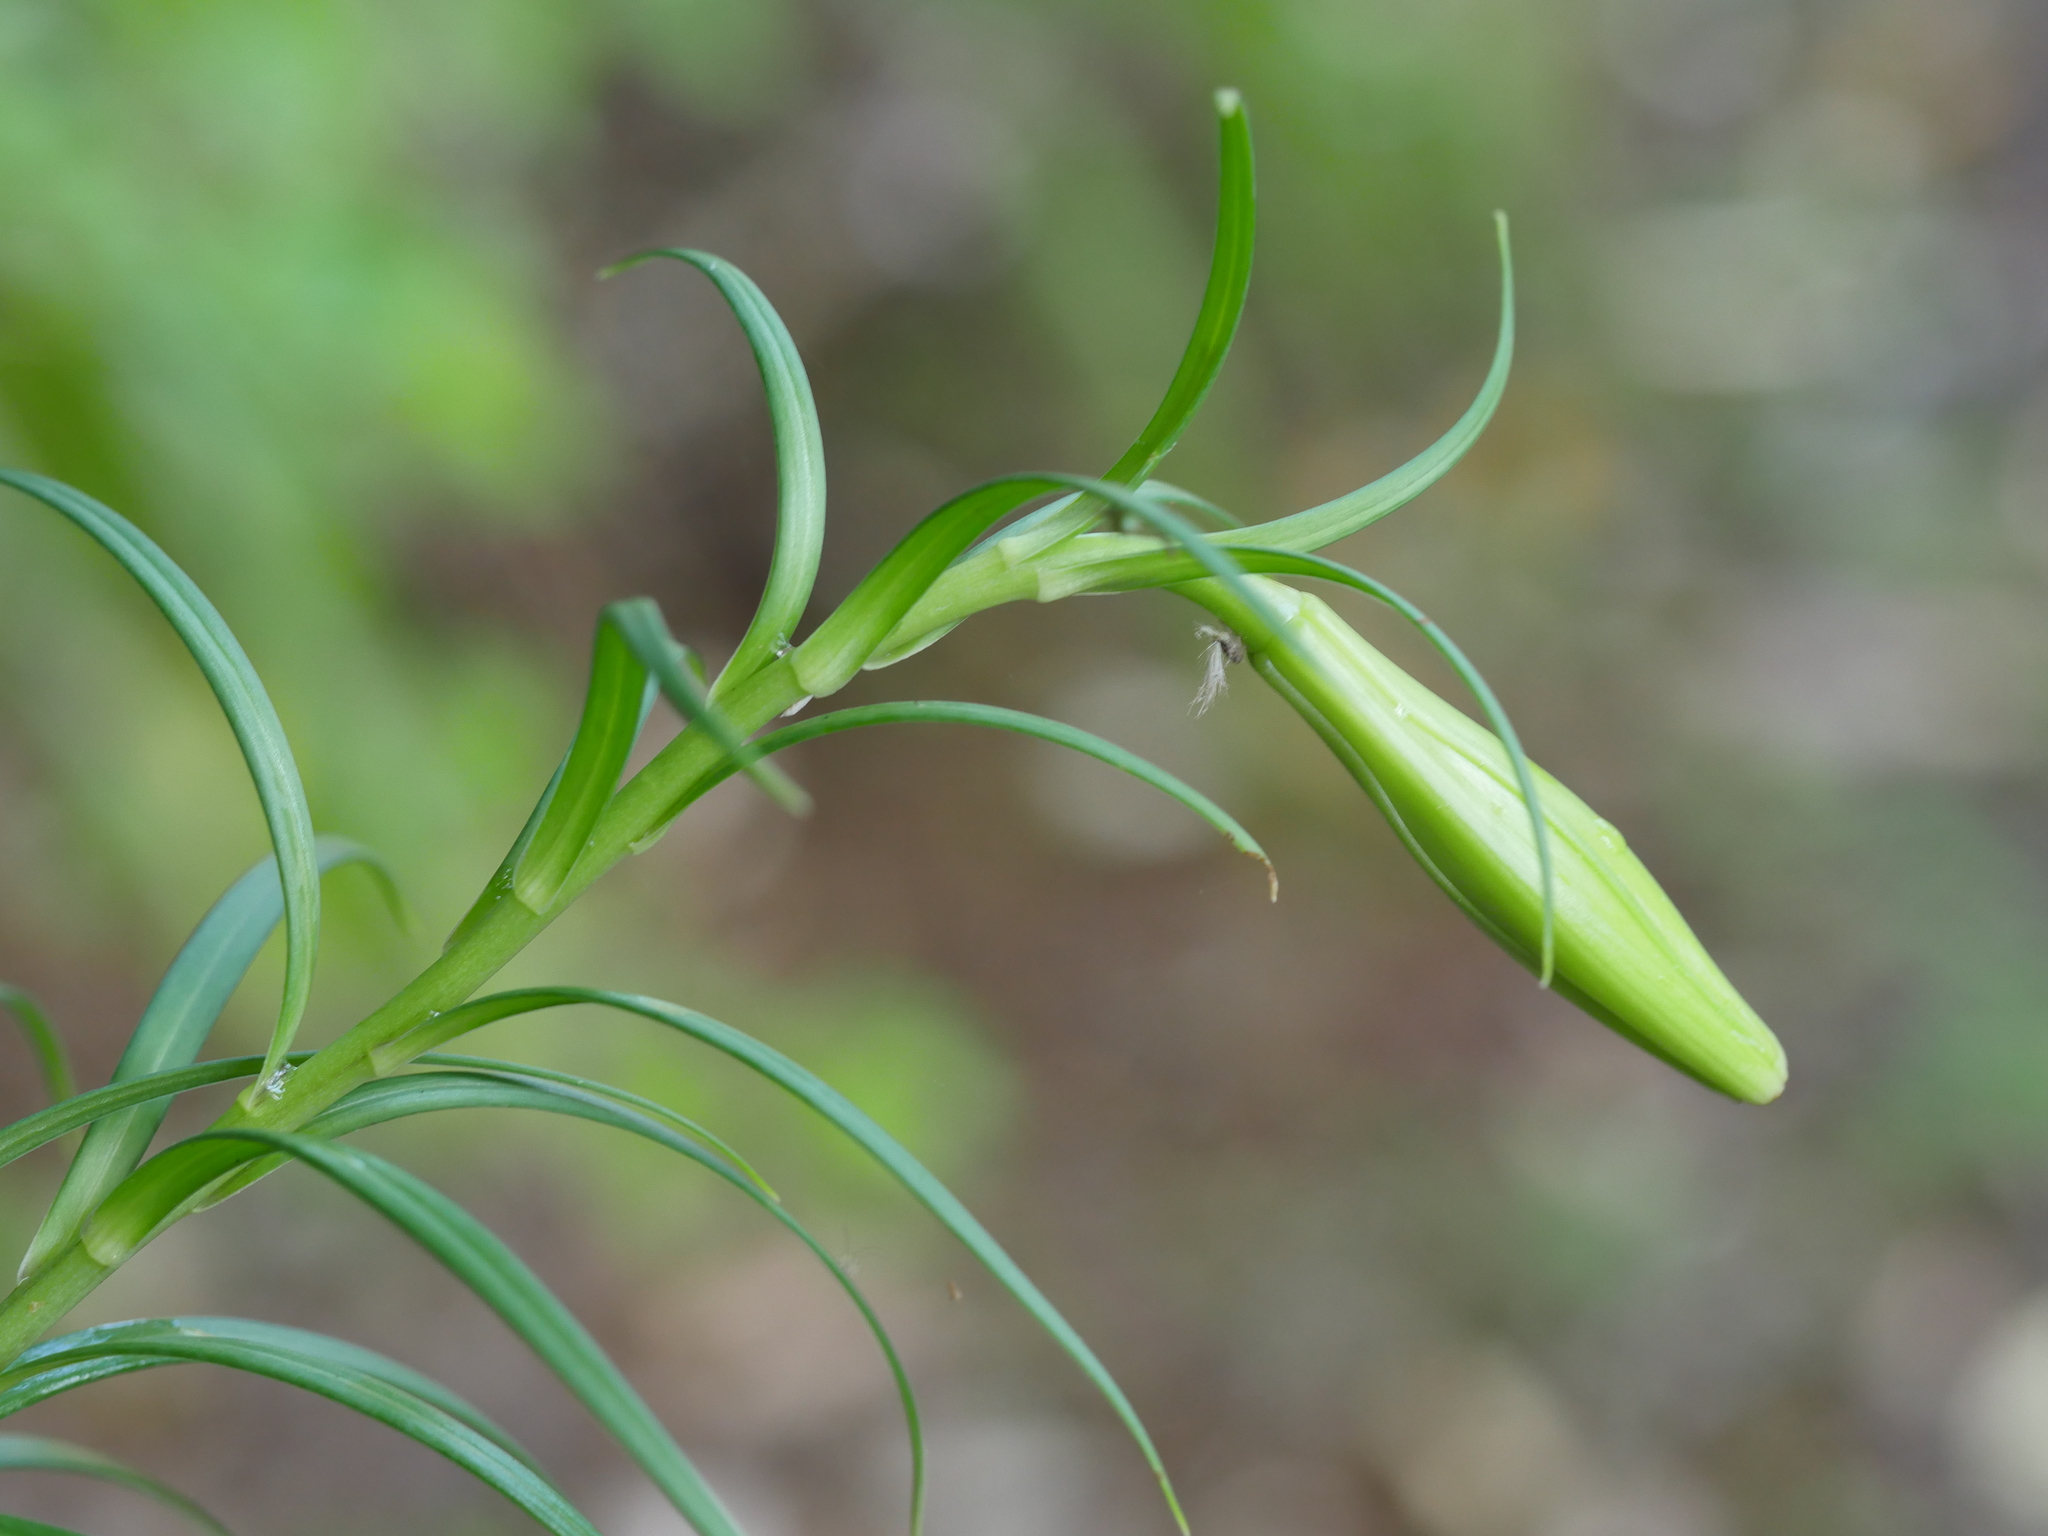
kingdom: Plantae
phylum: Tracheophyta
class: Liliopsida
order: Liliales
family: Liliaceae
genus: Lilium
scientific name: Lilium formosanum
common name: Formosa lily
